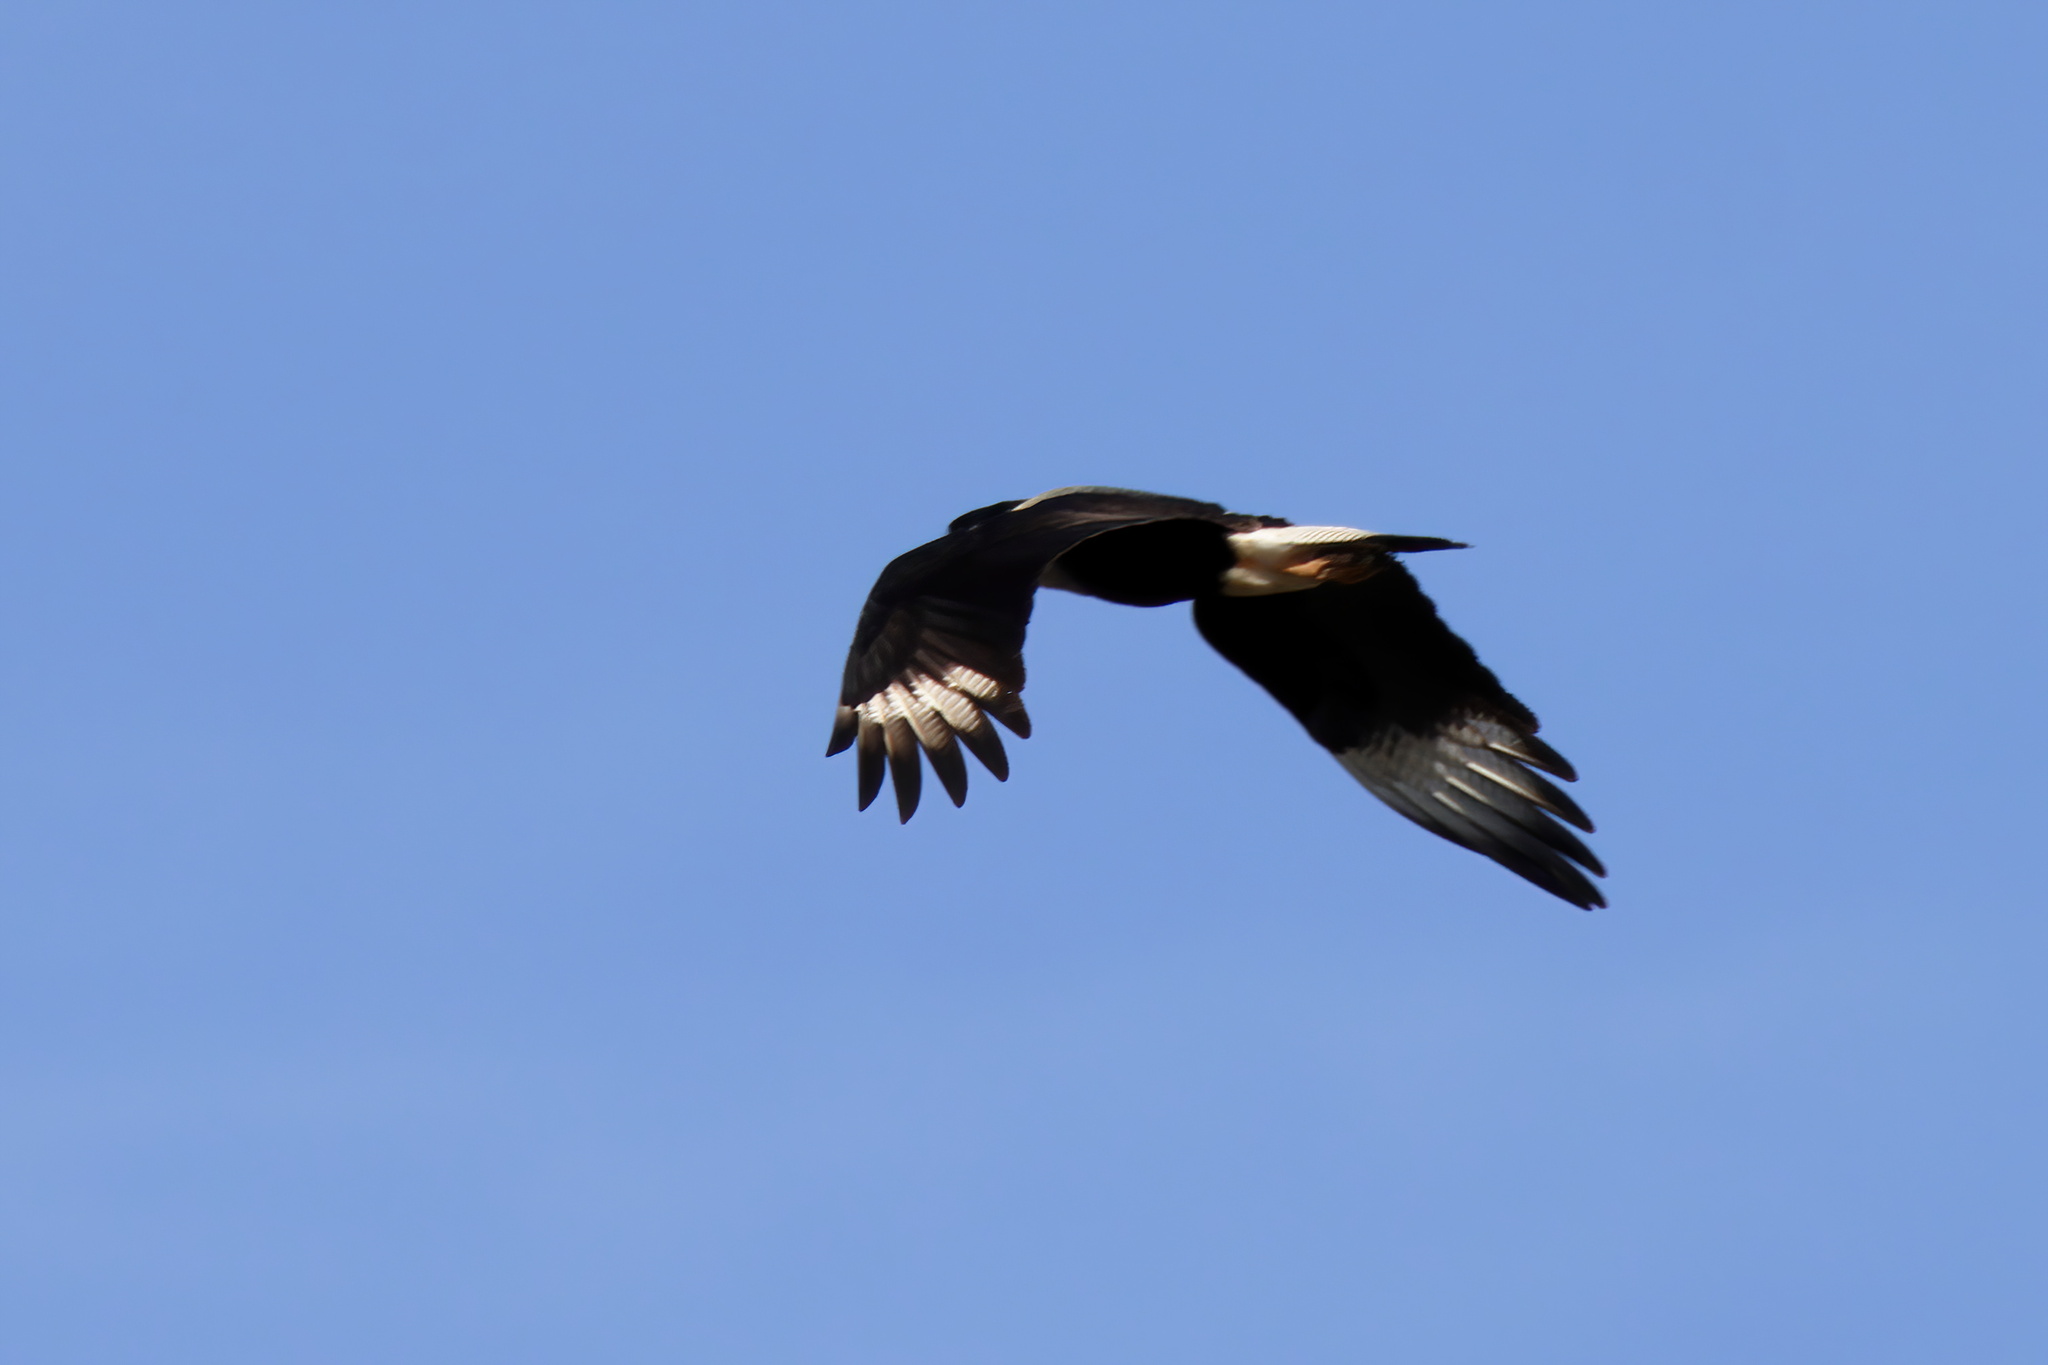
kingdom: Animalia
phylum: Chordata
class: Aves
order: Falconiformes
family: Falconidae
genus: Caracara
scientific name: Caracara plancus
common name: Southern caracara
